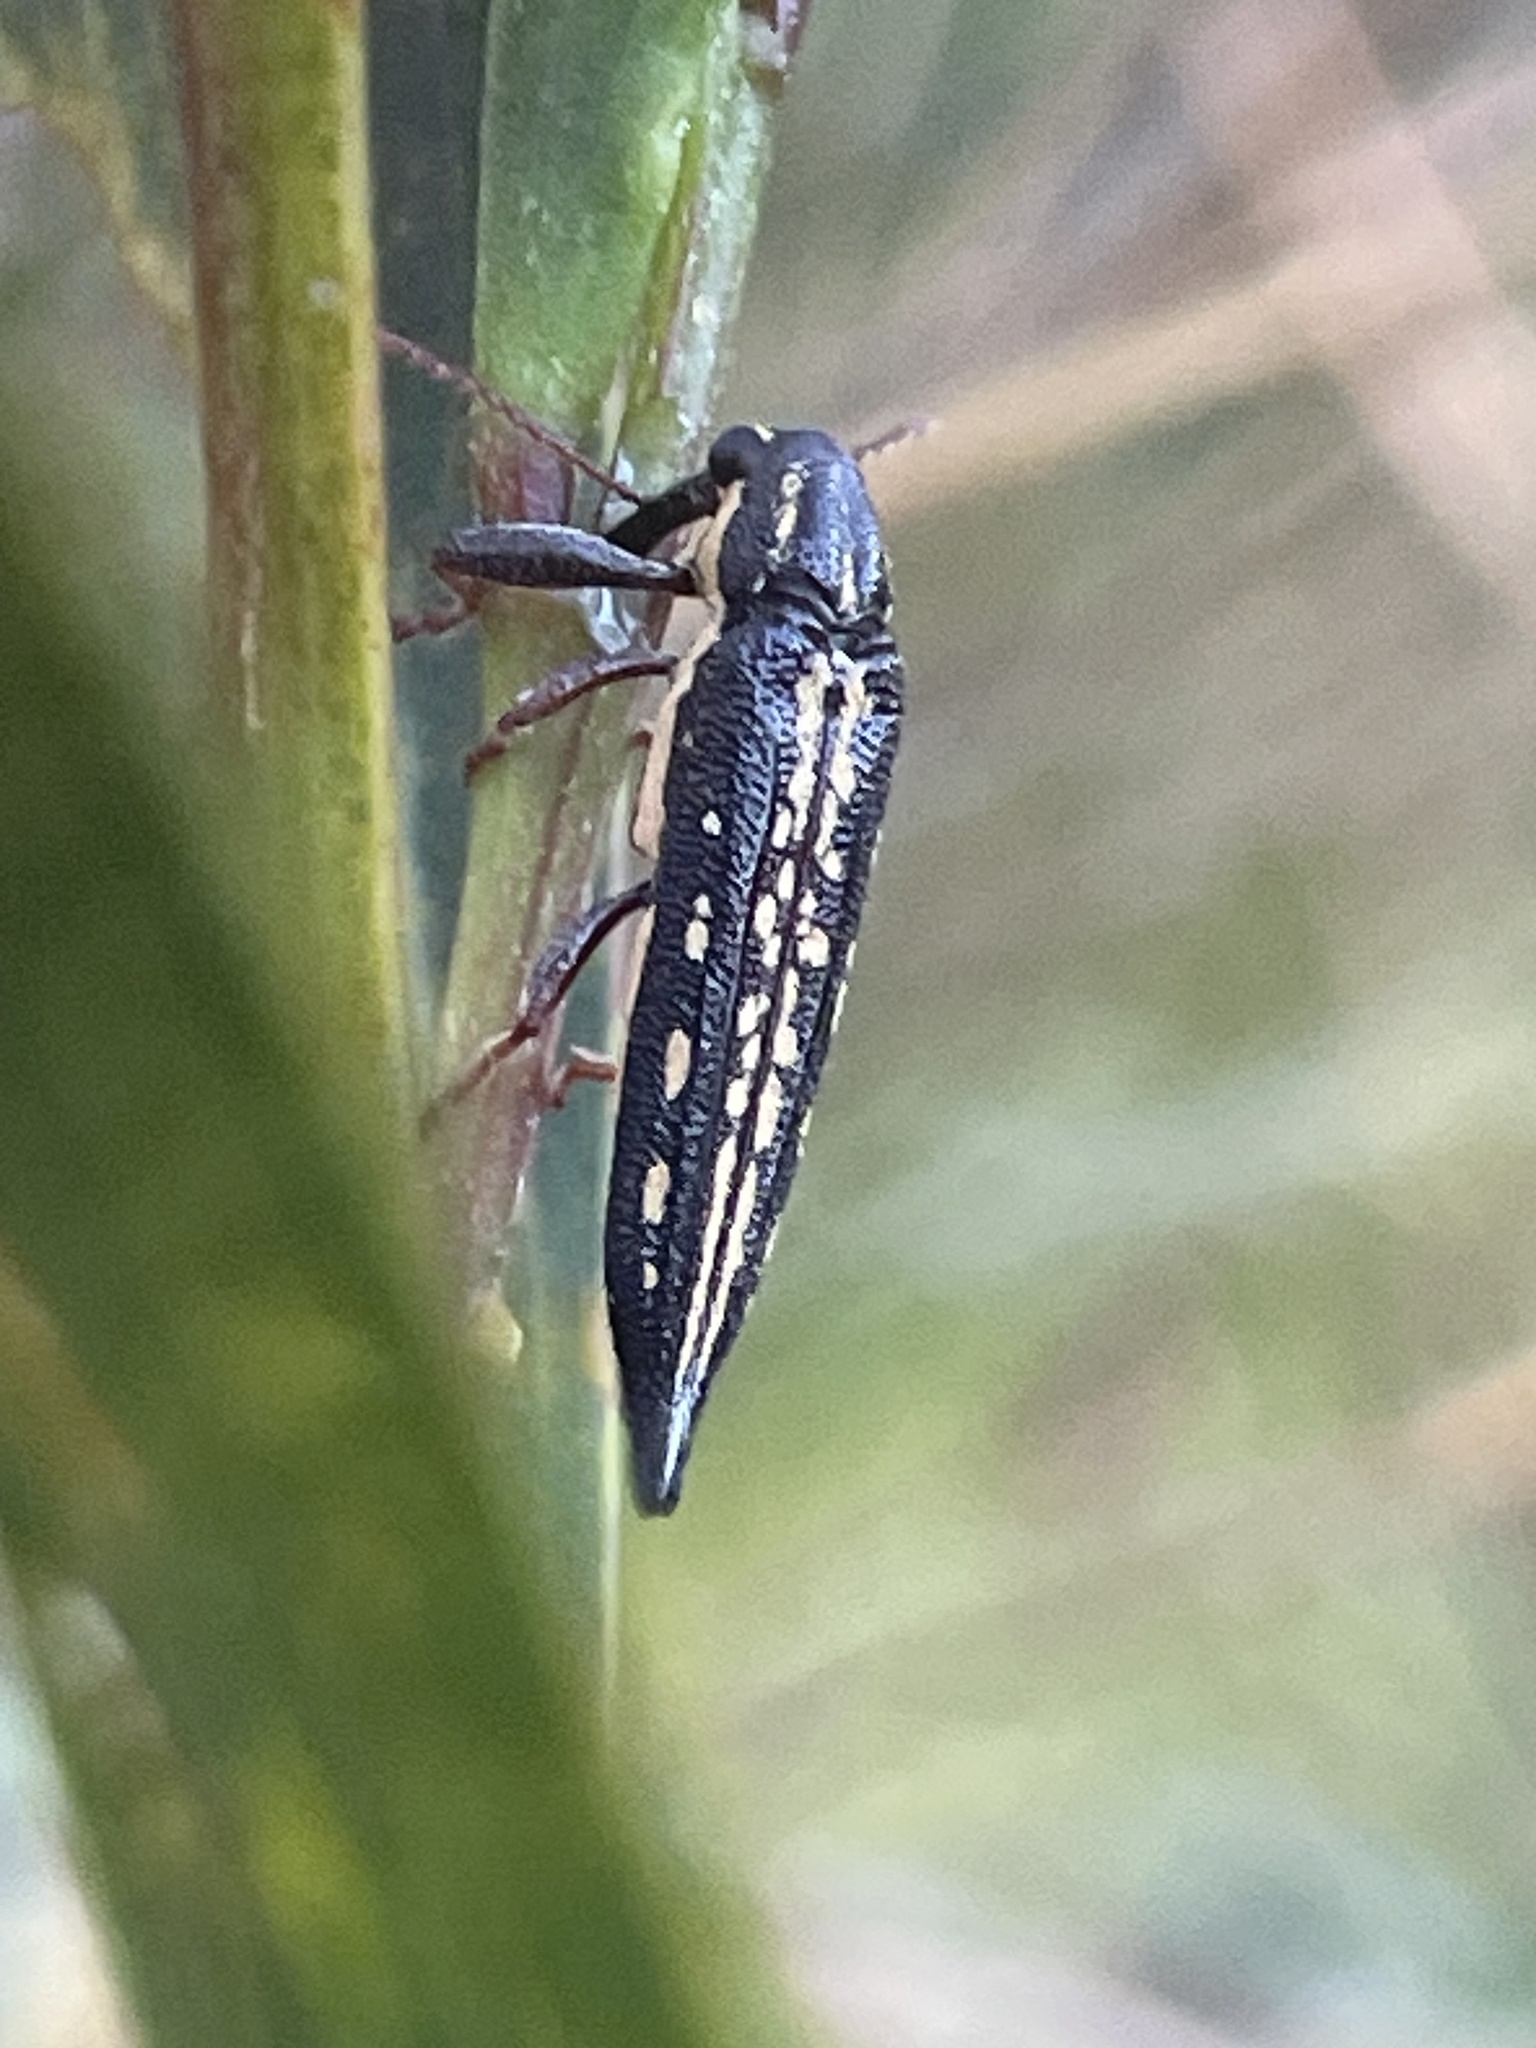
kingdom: Animalia
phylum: Arthropoda
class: Insecta
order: Coleoptera
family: Belidae
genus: Rhinotia
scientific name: Rhinotia lineata
